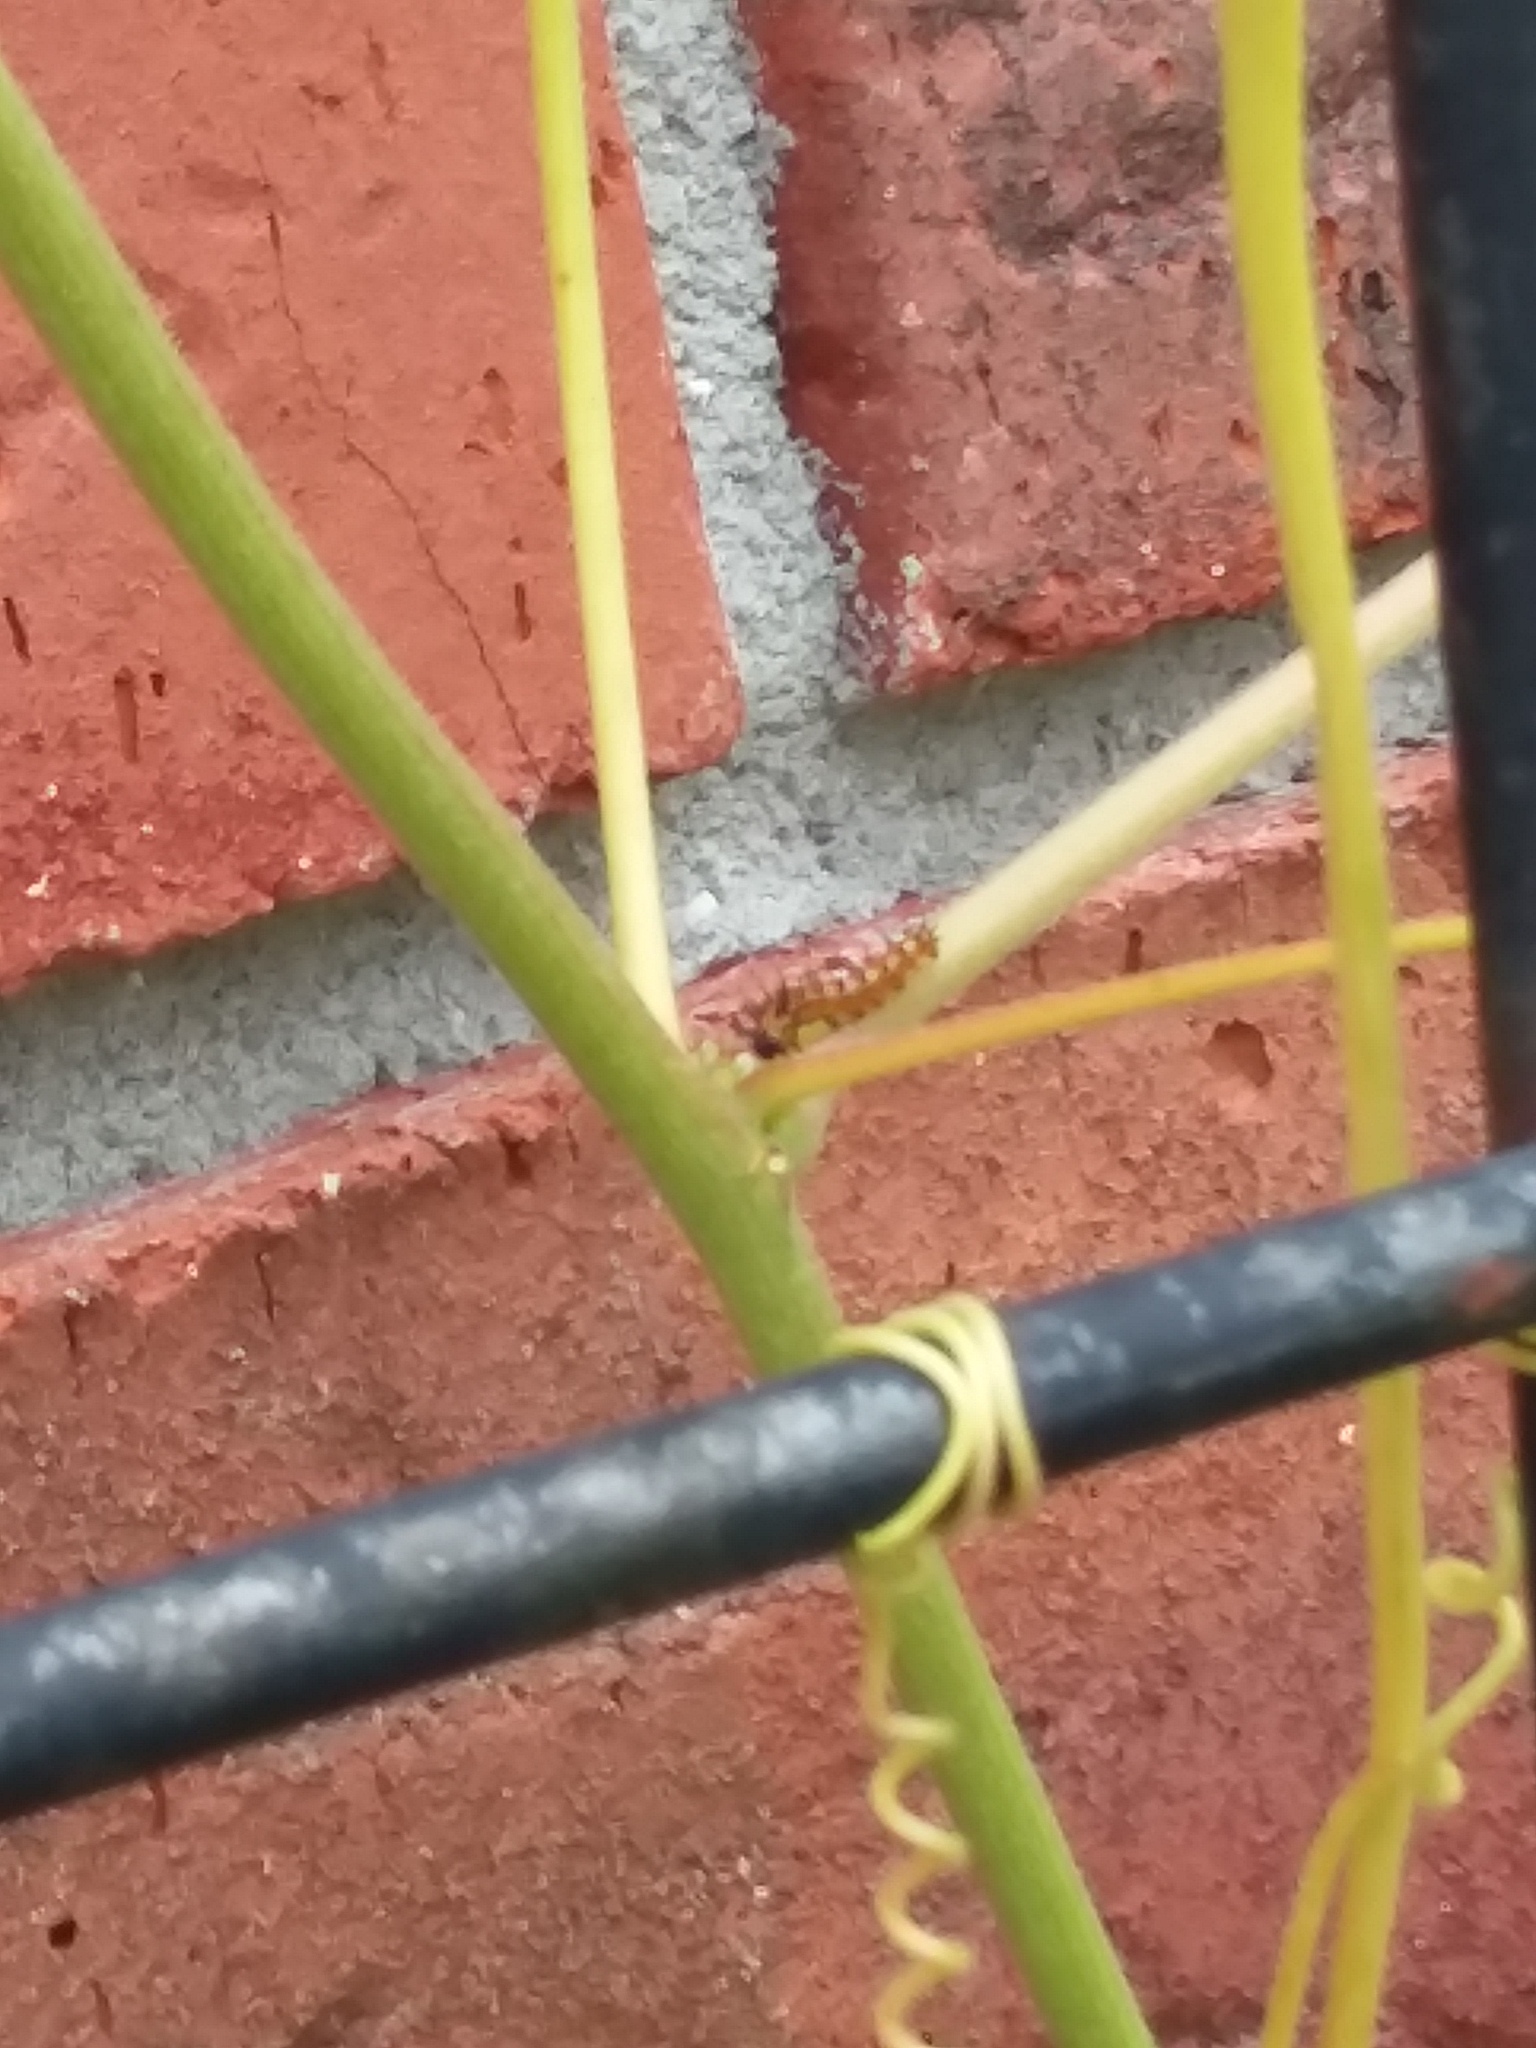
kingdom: Animalia
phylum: Arthropoda
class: Insecta
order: Lepidoptera
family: Nymphalidae
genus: Dione
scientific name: Dione vanillae
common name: Gulf fritillary
